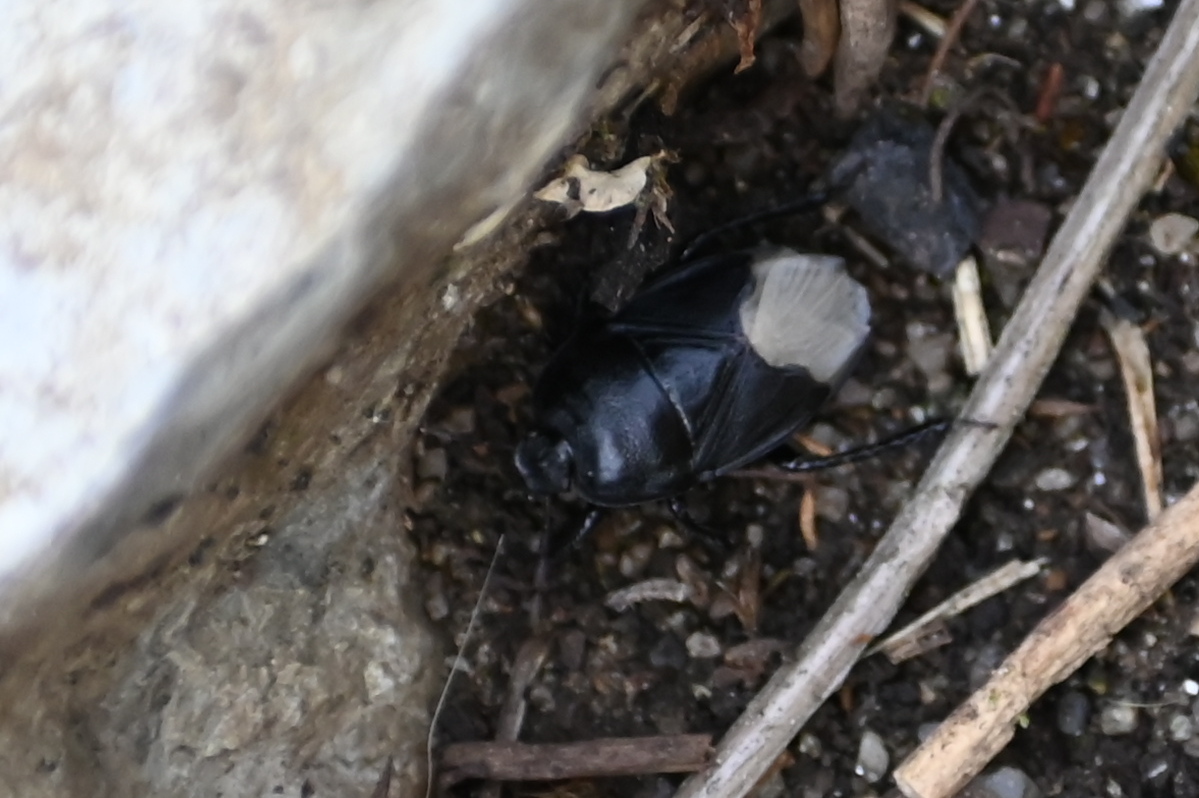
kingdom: Animalia
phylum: Arthropoda
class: Insecta
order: Hemiptera
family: Cydnidae
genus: Cydnus
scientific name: Cydnus aterrimus
